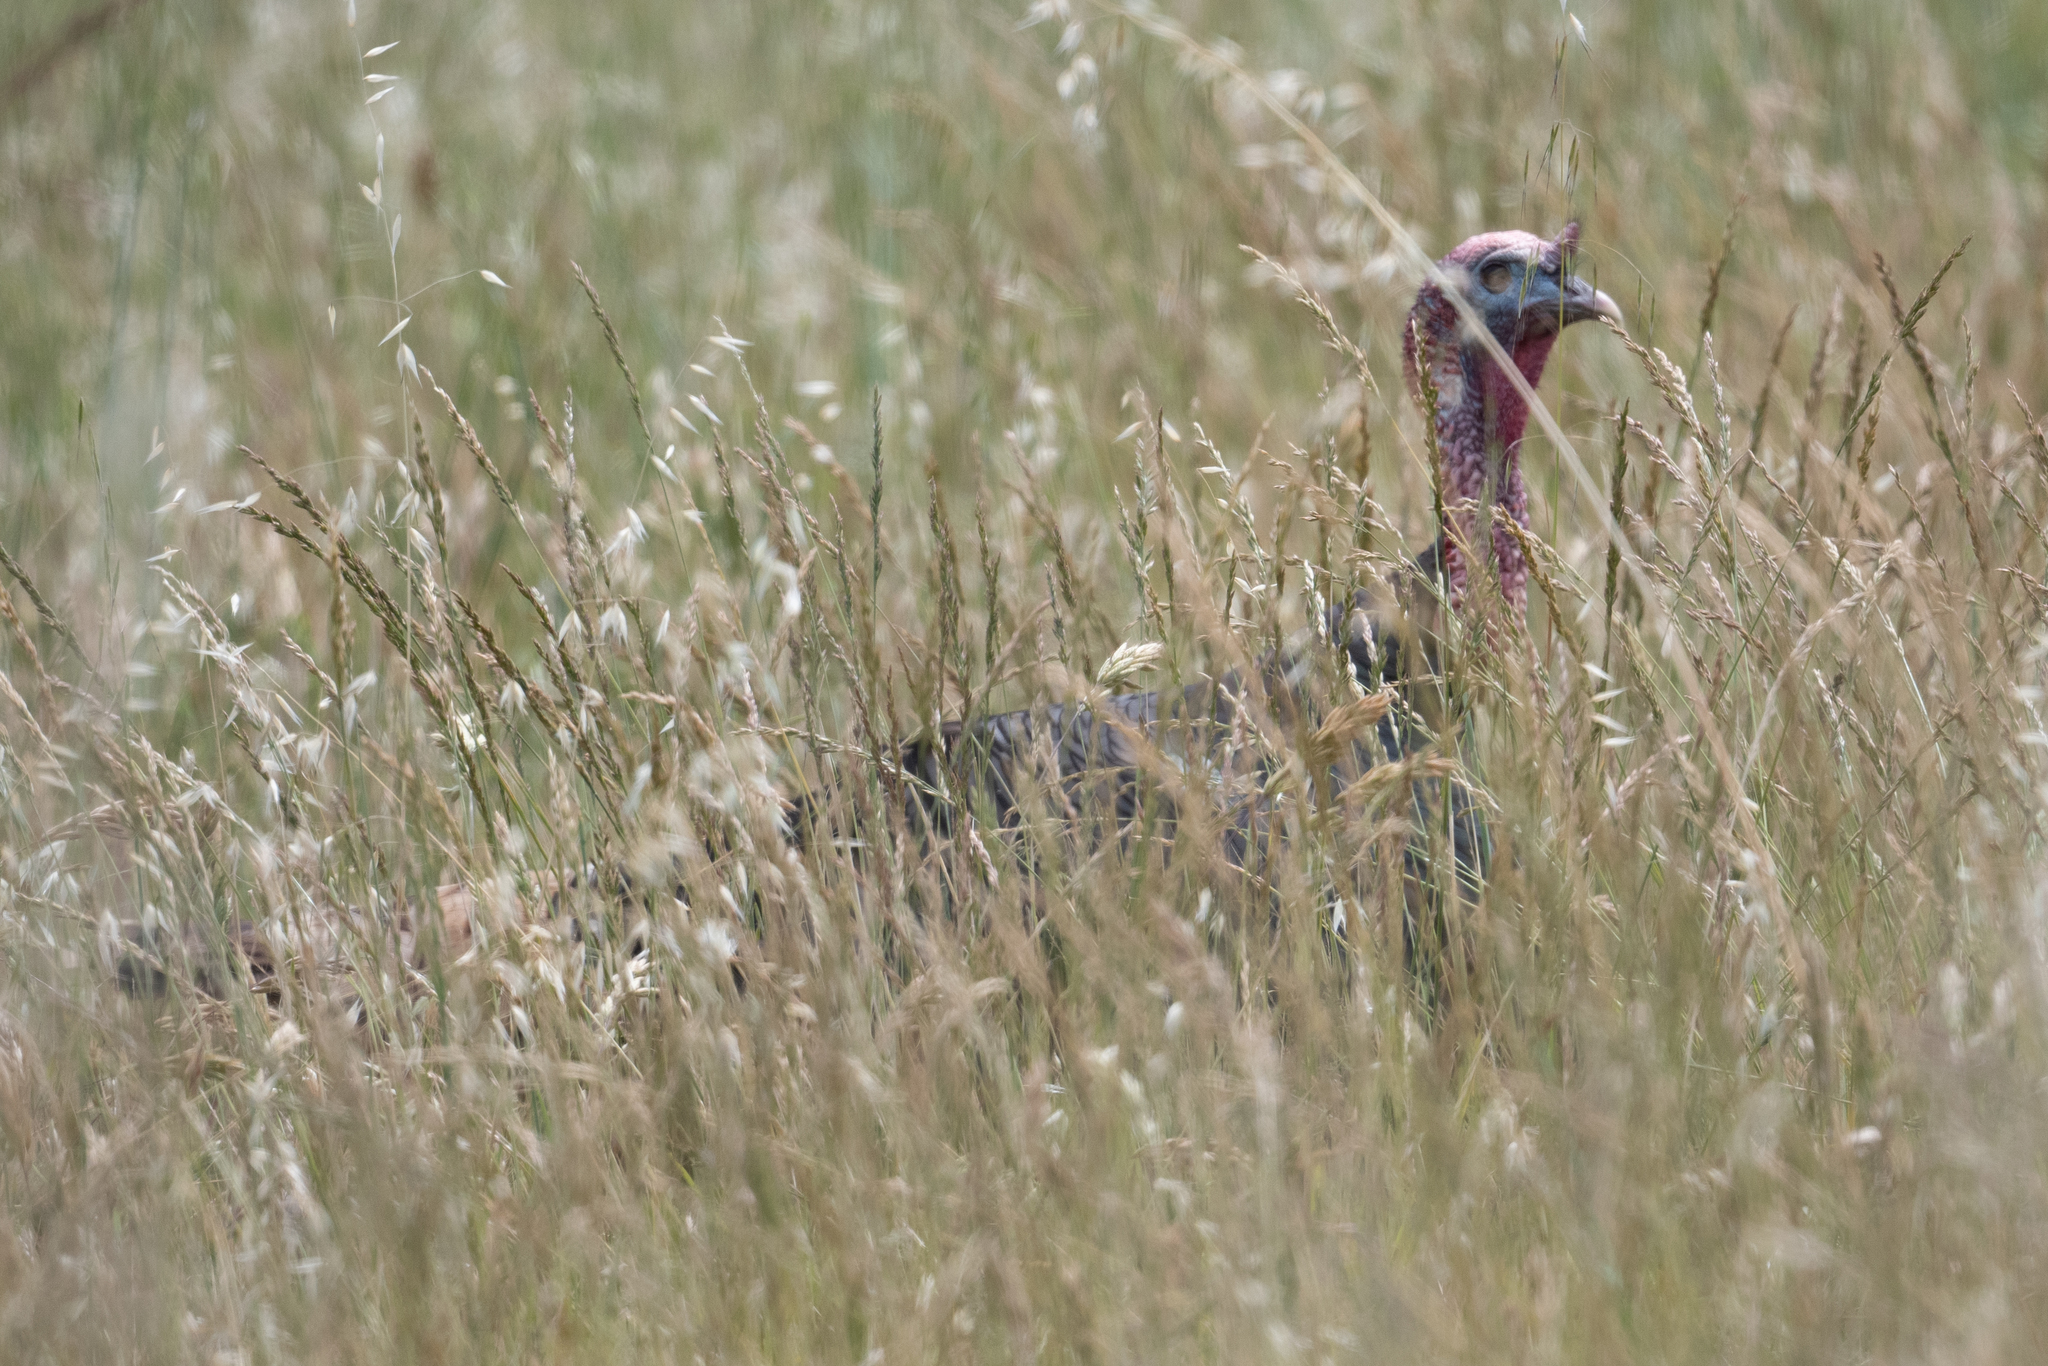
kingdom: Animalia
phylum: Chordata
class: Aves
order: Galliformes
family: Phasianidae
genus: Meleagris
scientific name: Meleagris gallopavo
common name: Wild turkey
